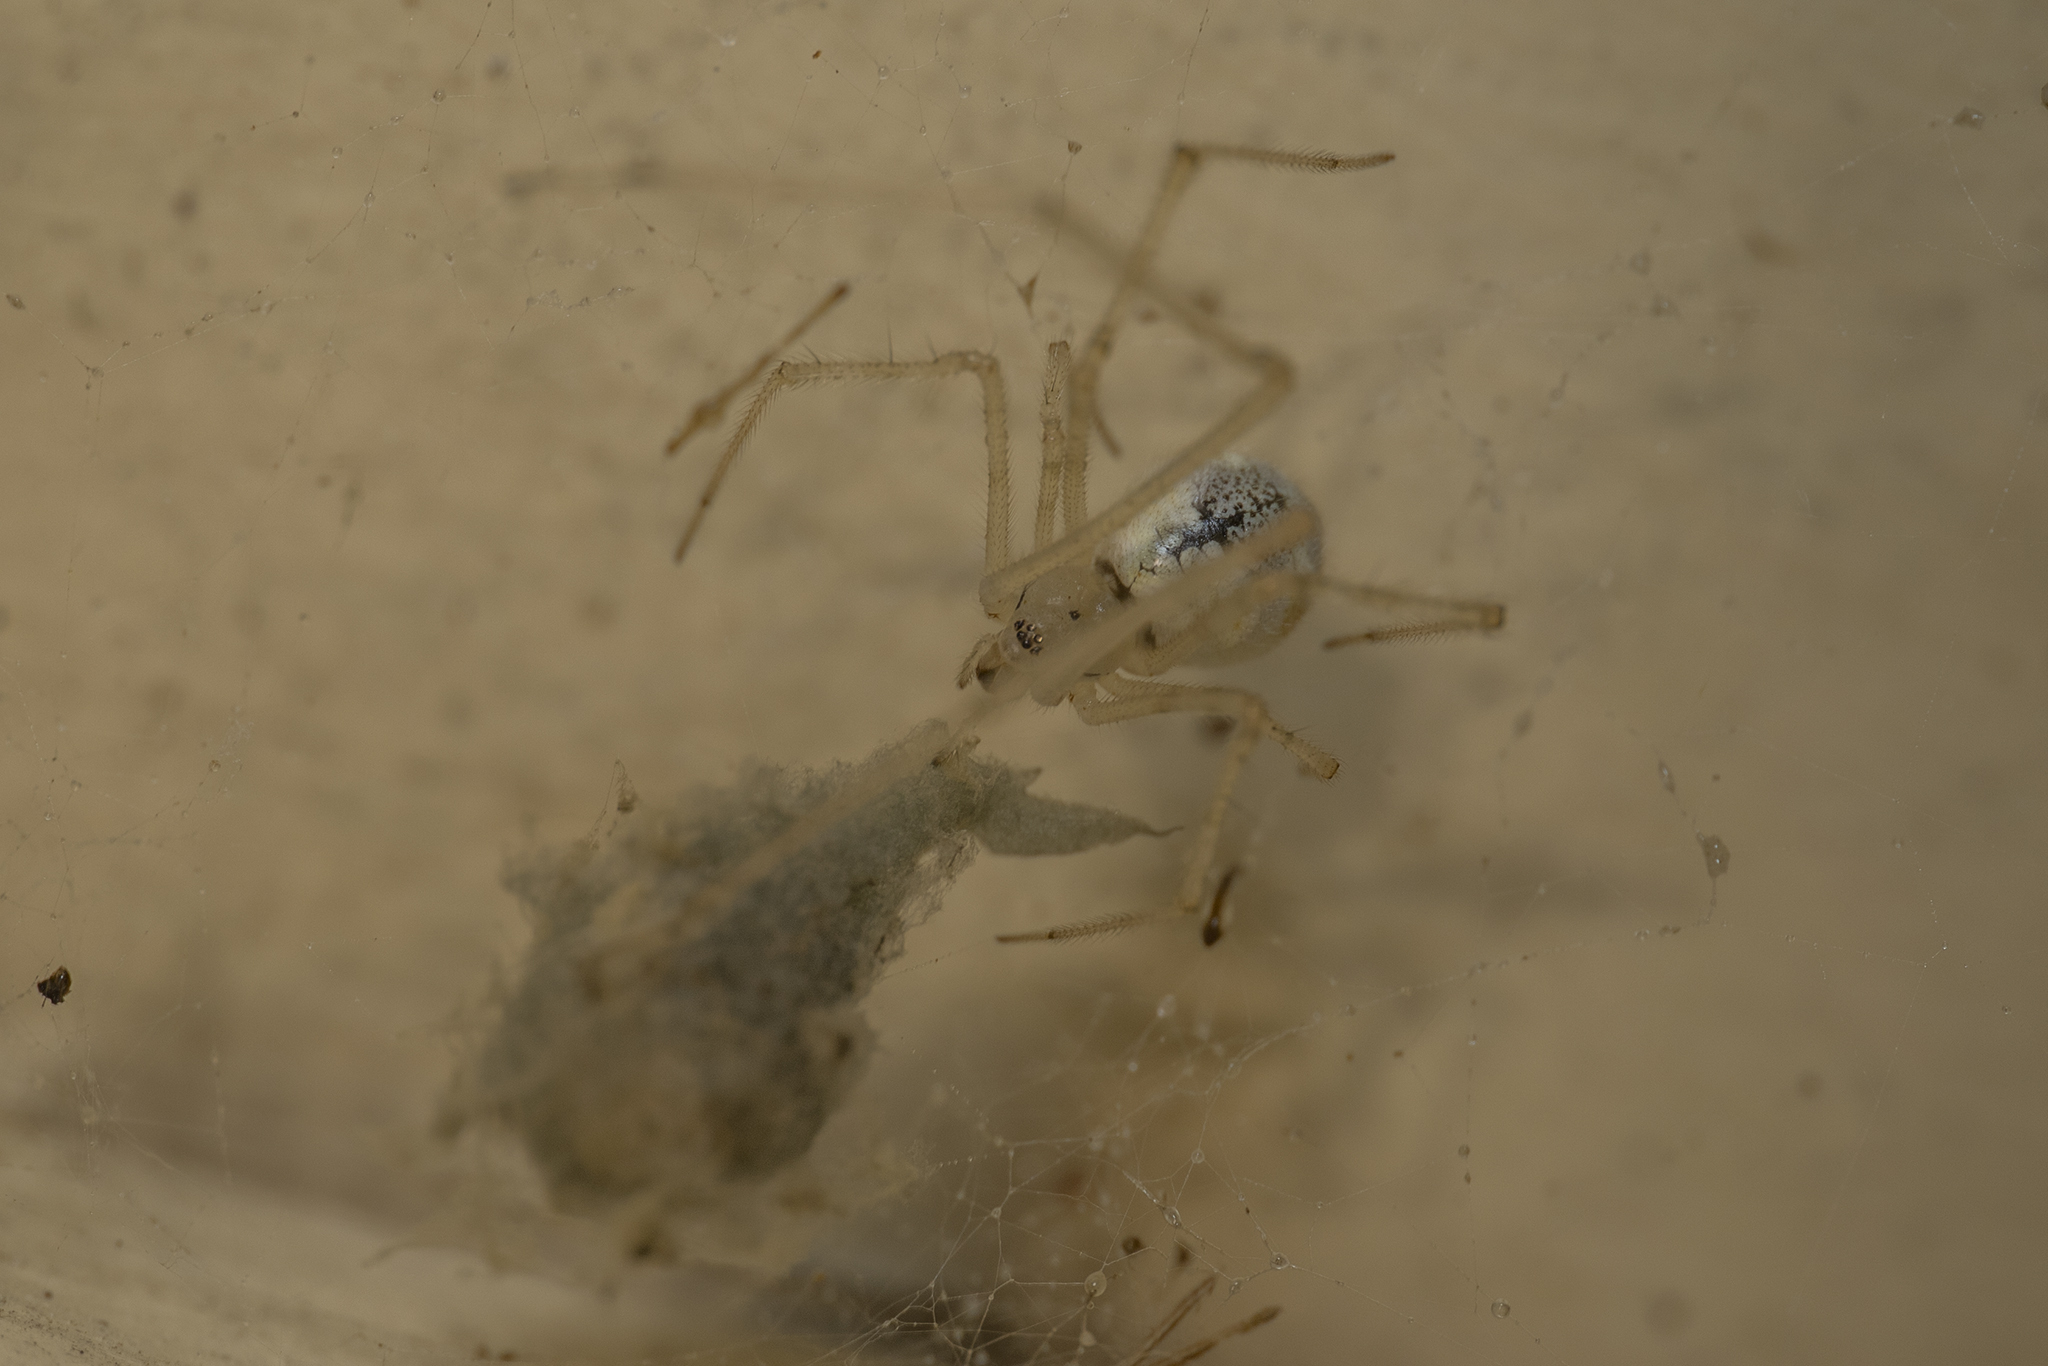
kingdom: Animalia
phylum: Arthropoda
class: Arachnida
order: Araneae
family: Theridiidae
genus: Cryptachaea
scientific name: Cryptachaea gigantipes
